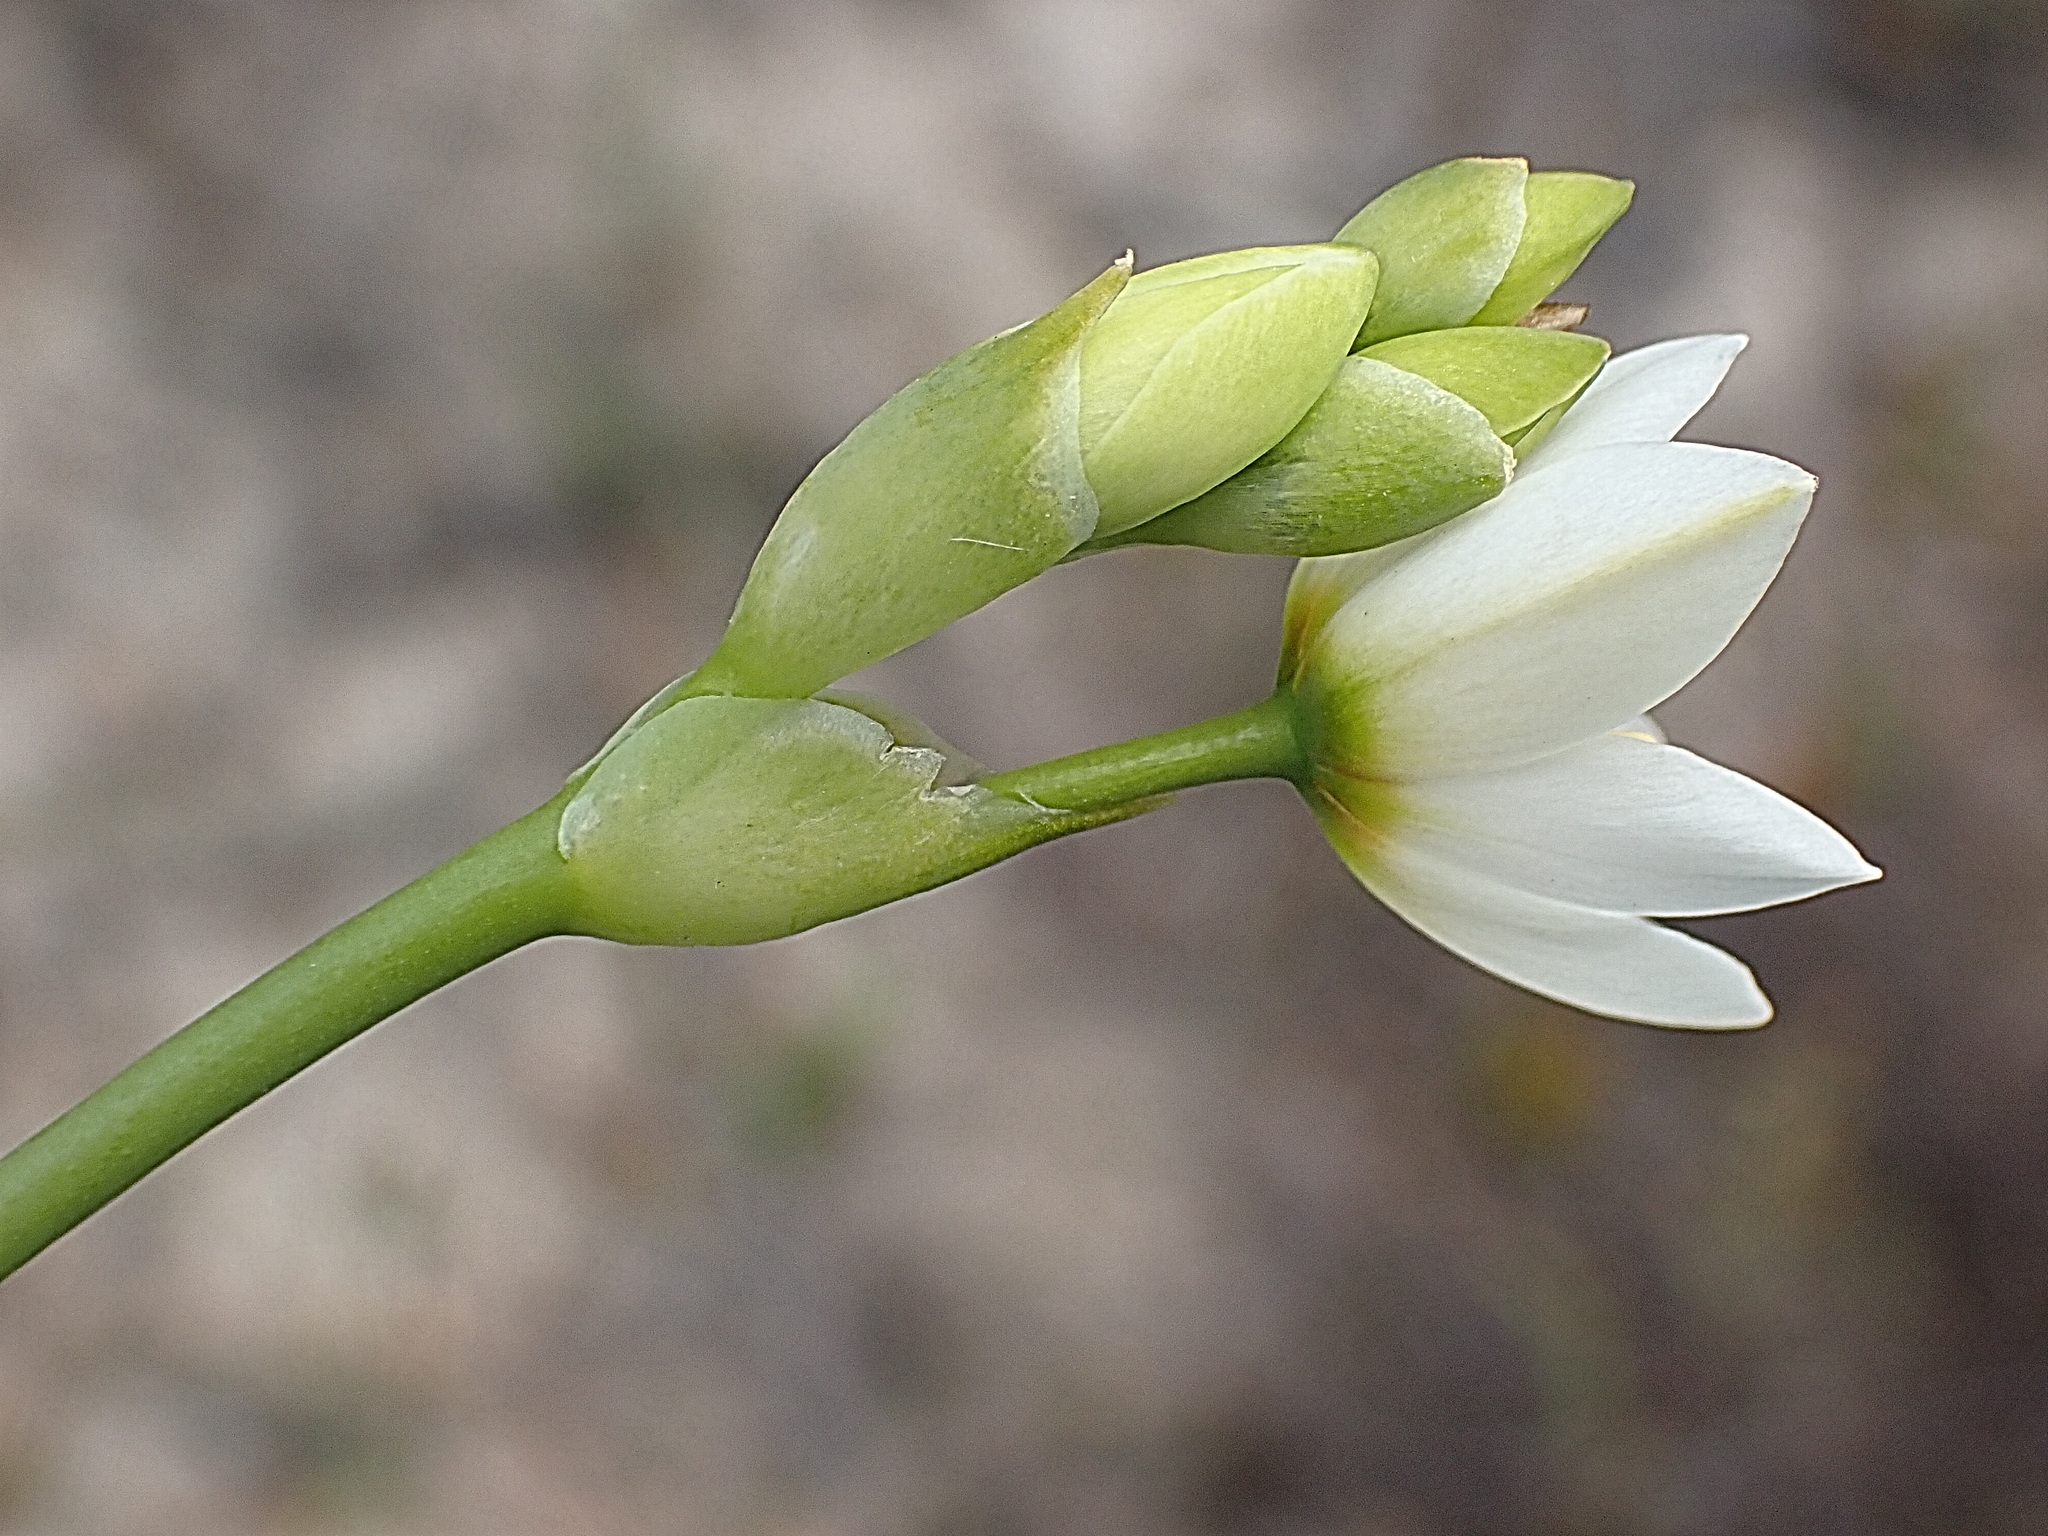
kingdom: Plantae
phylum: Tracheophyta
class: Liliopsida
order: Asparagales
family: Asparagaceae
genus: Ornithogalum
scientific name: Ornithogalum dubium
